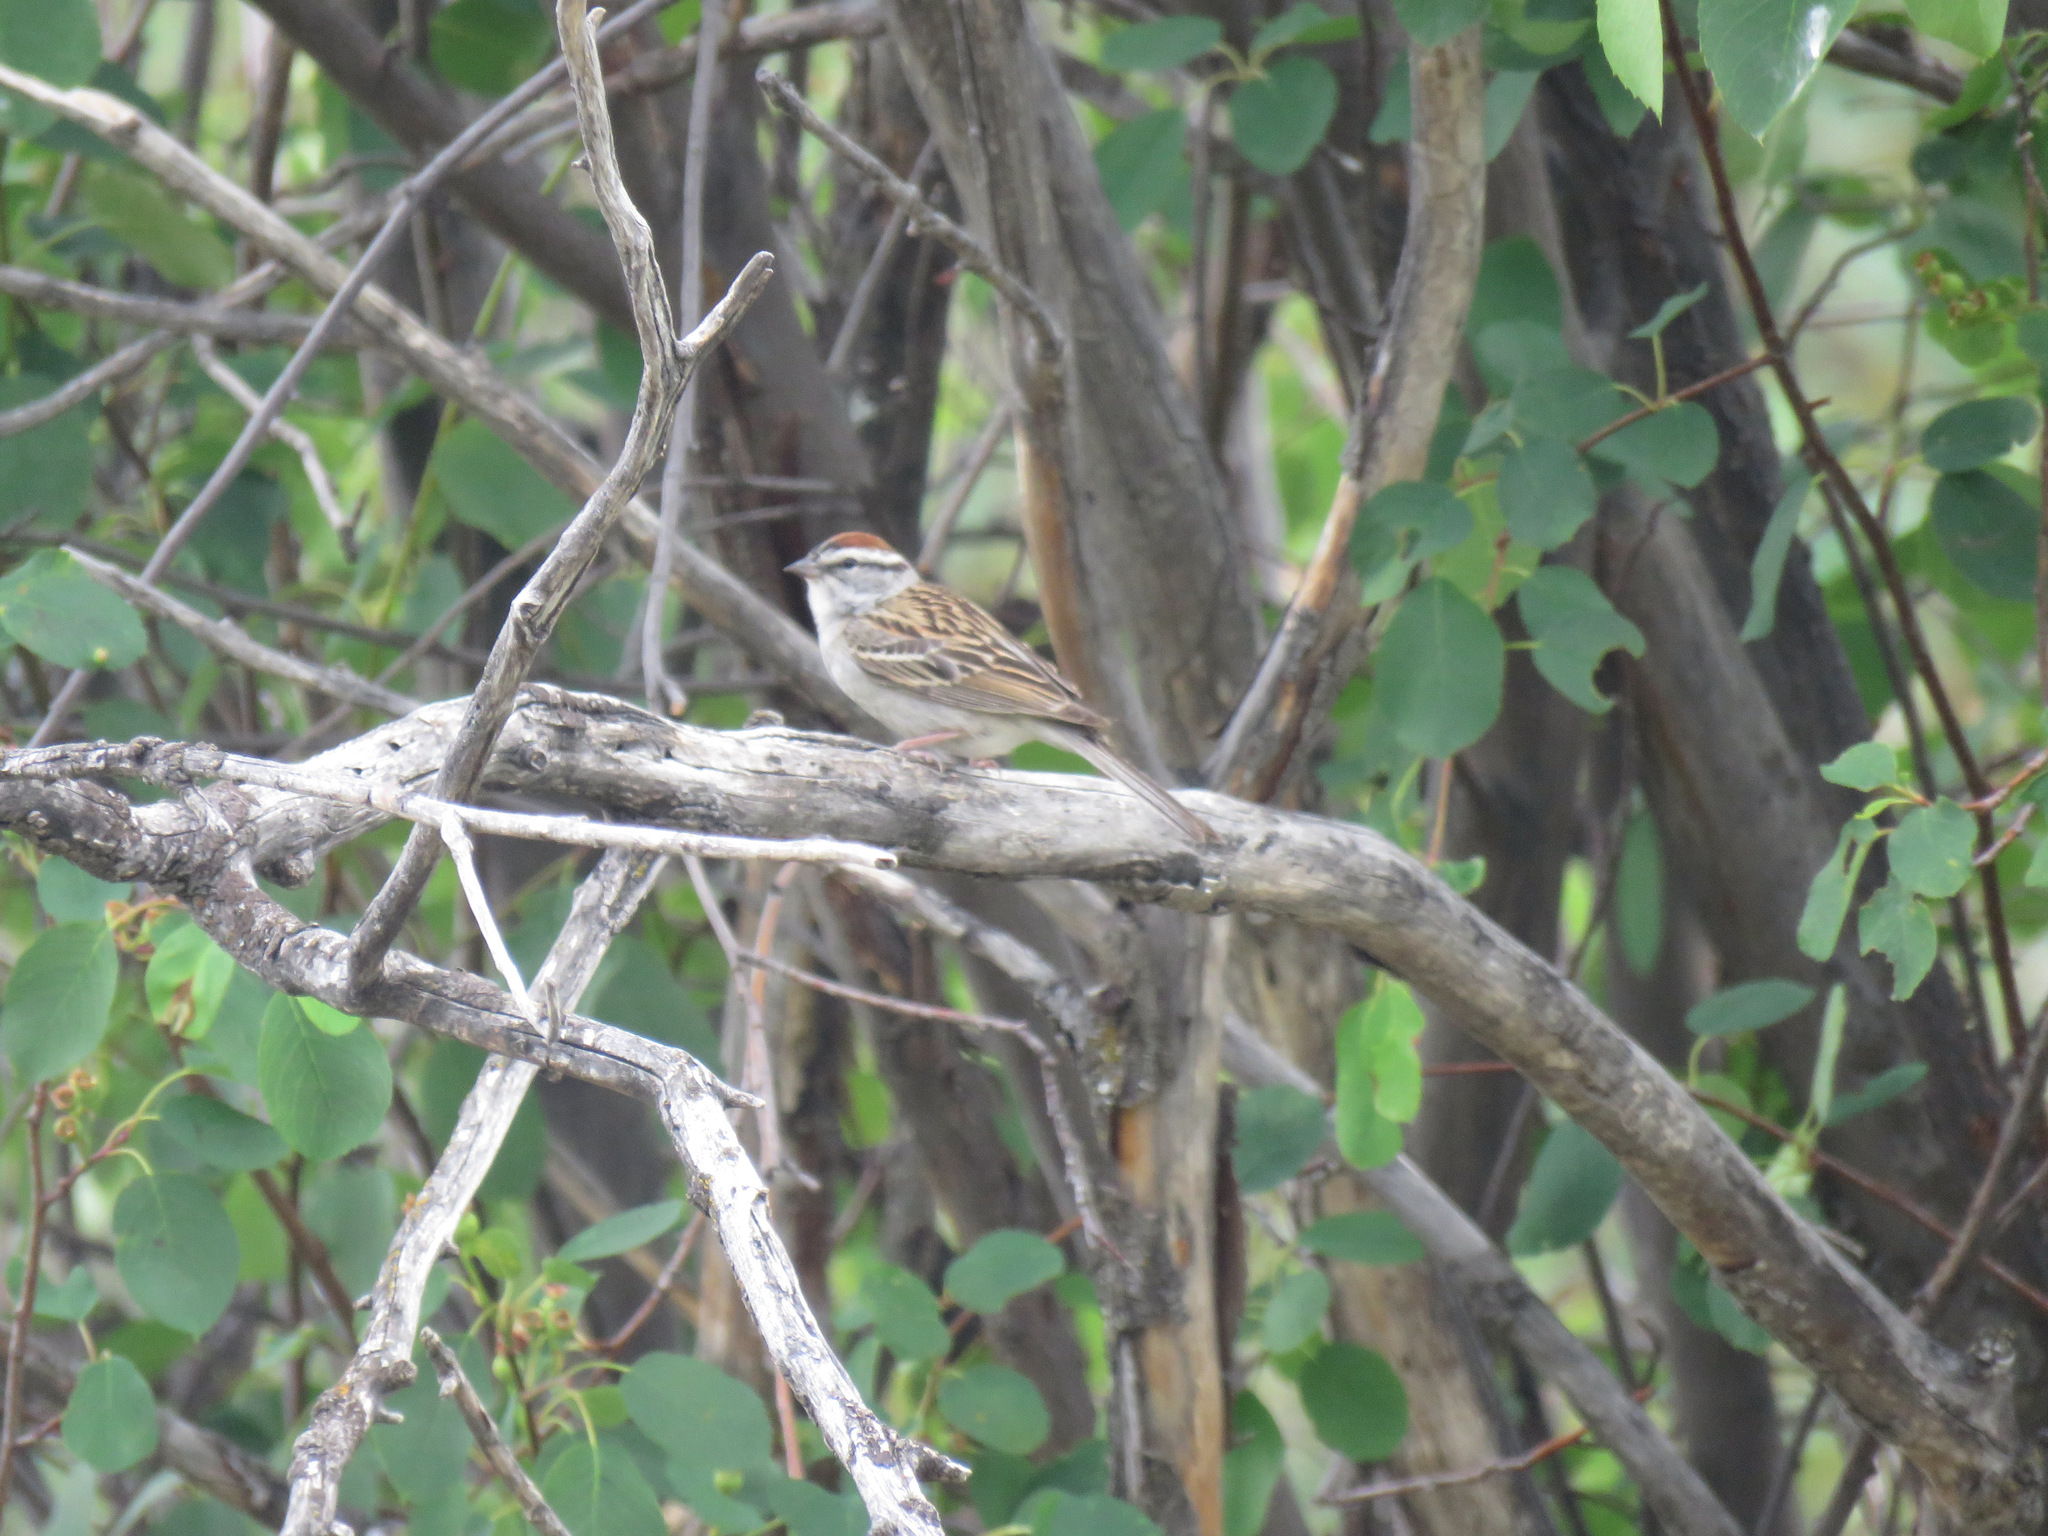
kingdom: Animalia
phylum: Chordata
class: Aves
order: Passeriformes
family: Passerellidae
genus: Spizella
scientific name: Spizella passerina
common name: Chipping sparrow
